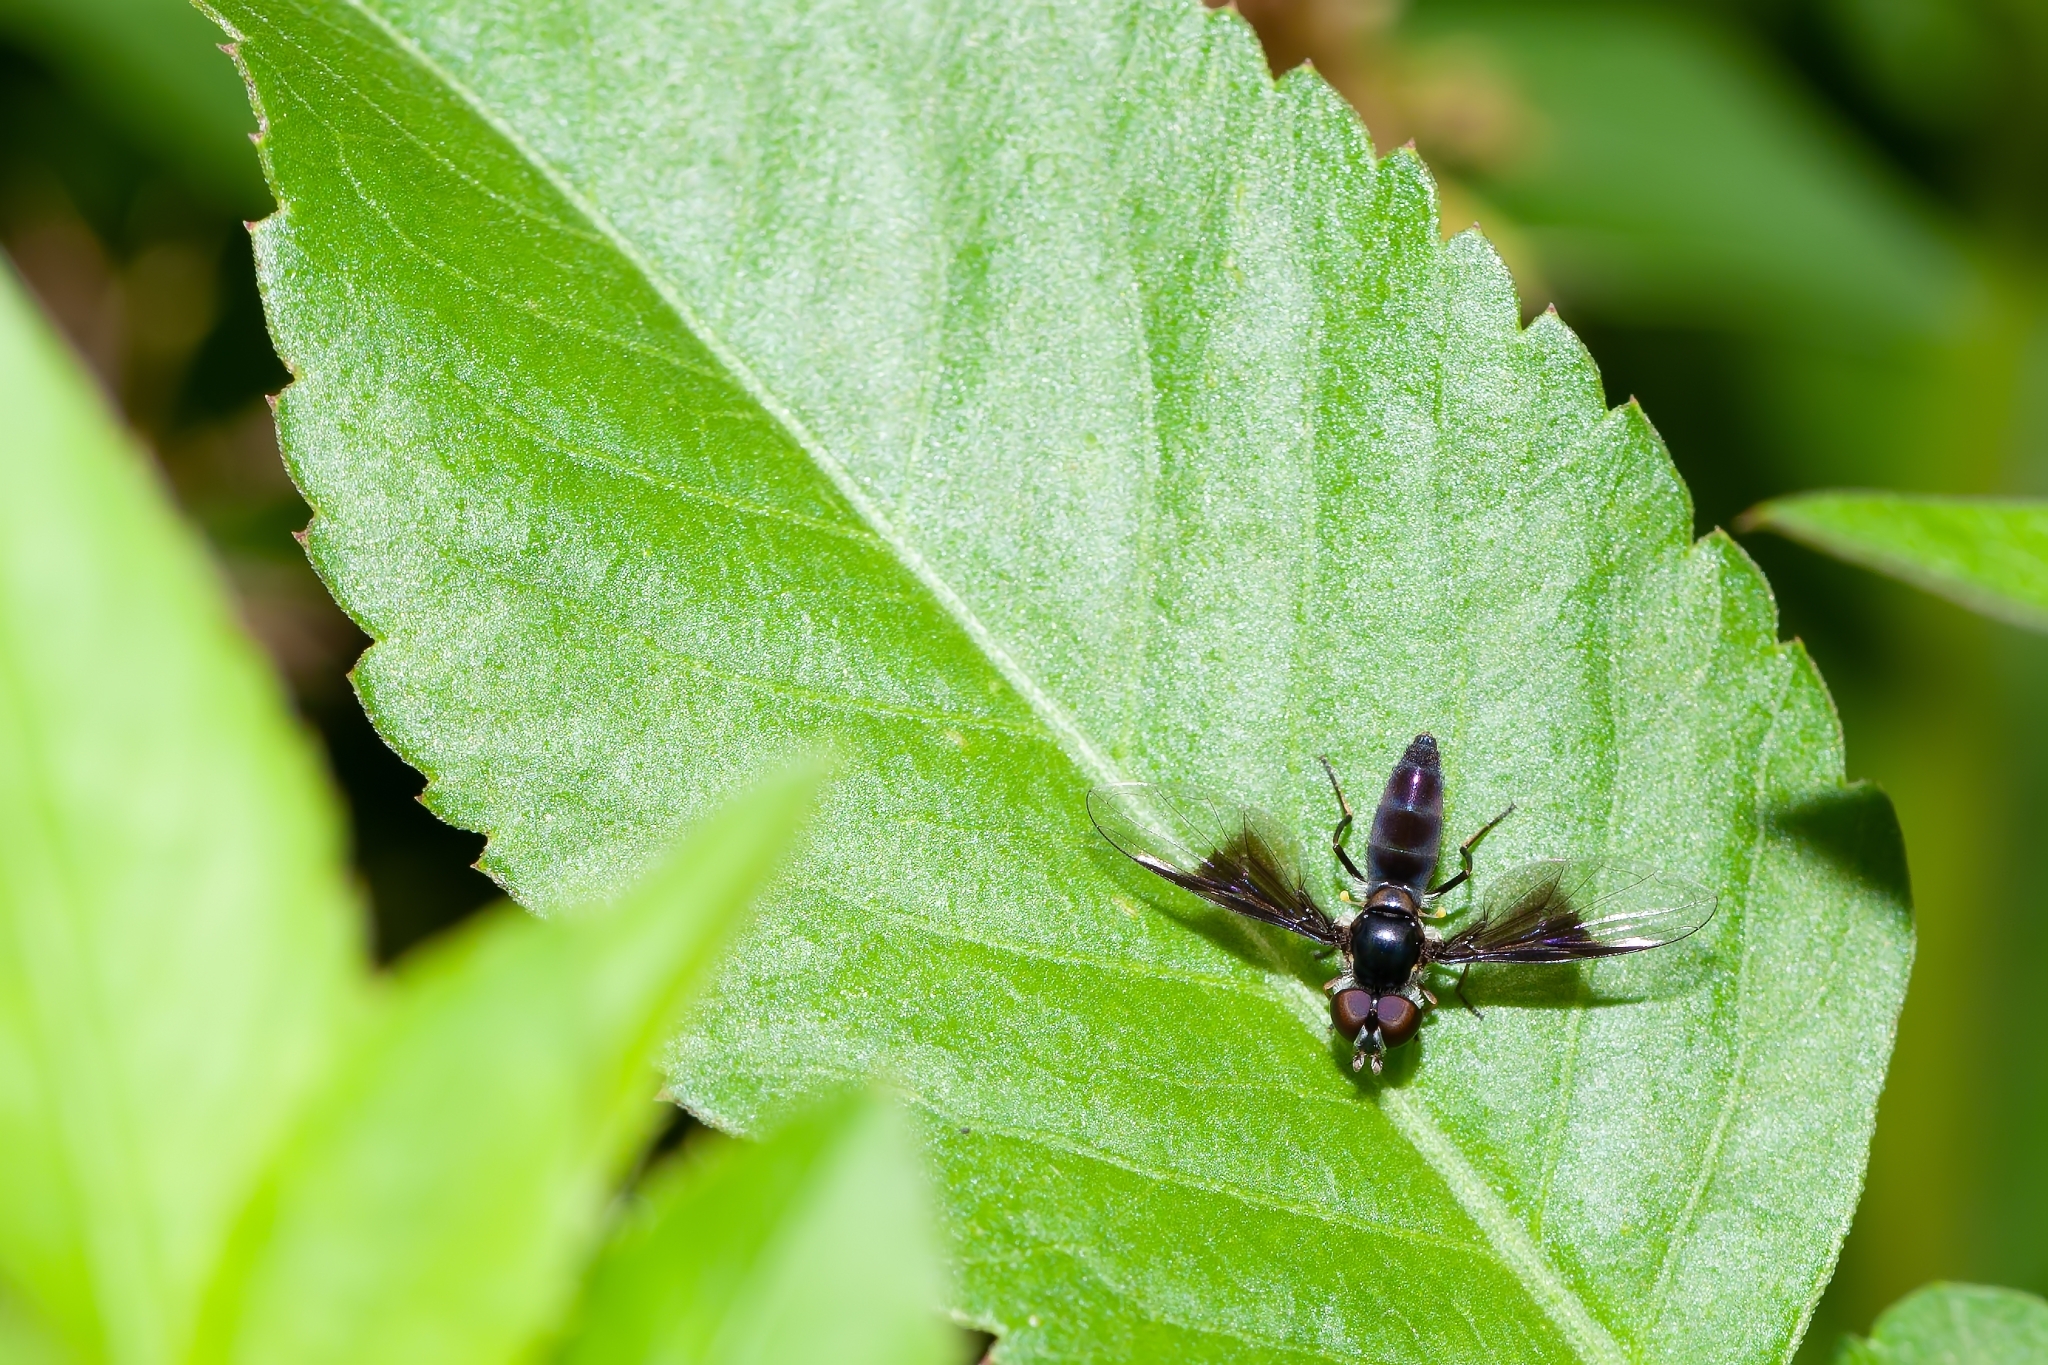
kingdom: Animalia
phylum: Arthropoda
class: Insecta
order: Diptera
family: Syrphidae
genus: Ocyptamus
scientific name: Ocyptamus dimidiatus
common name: Syrphid fly
